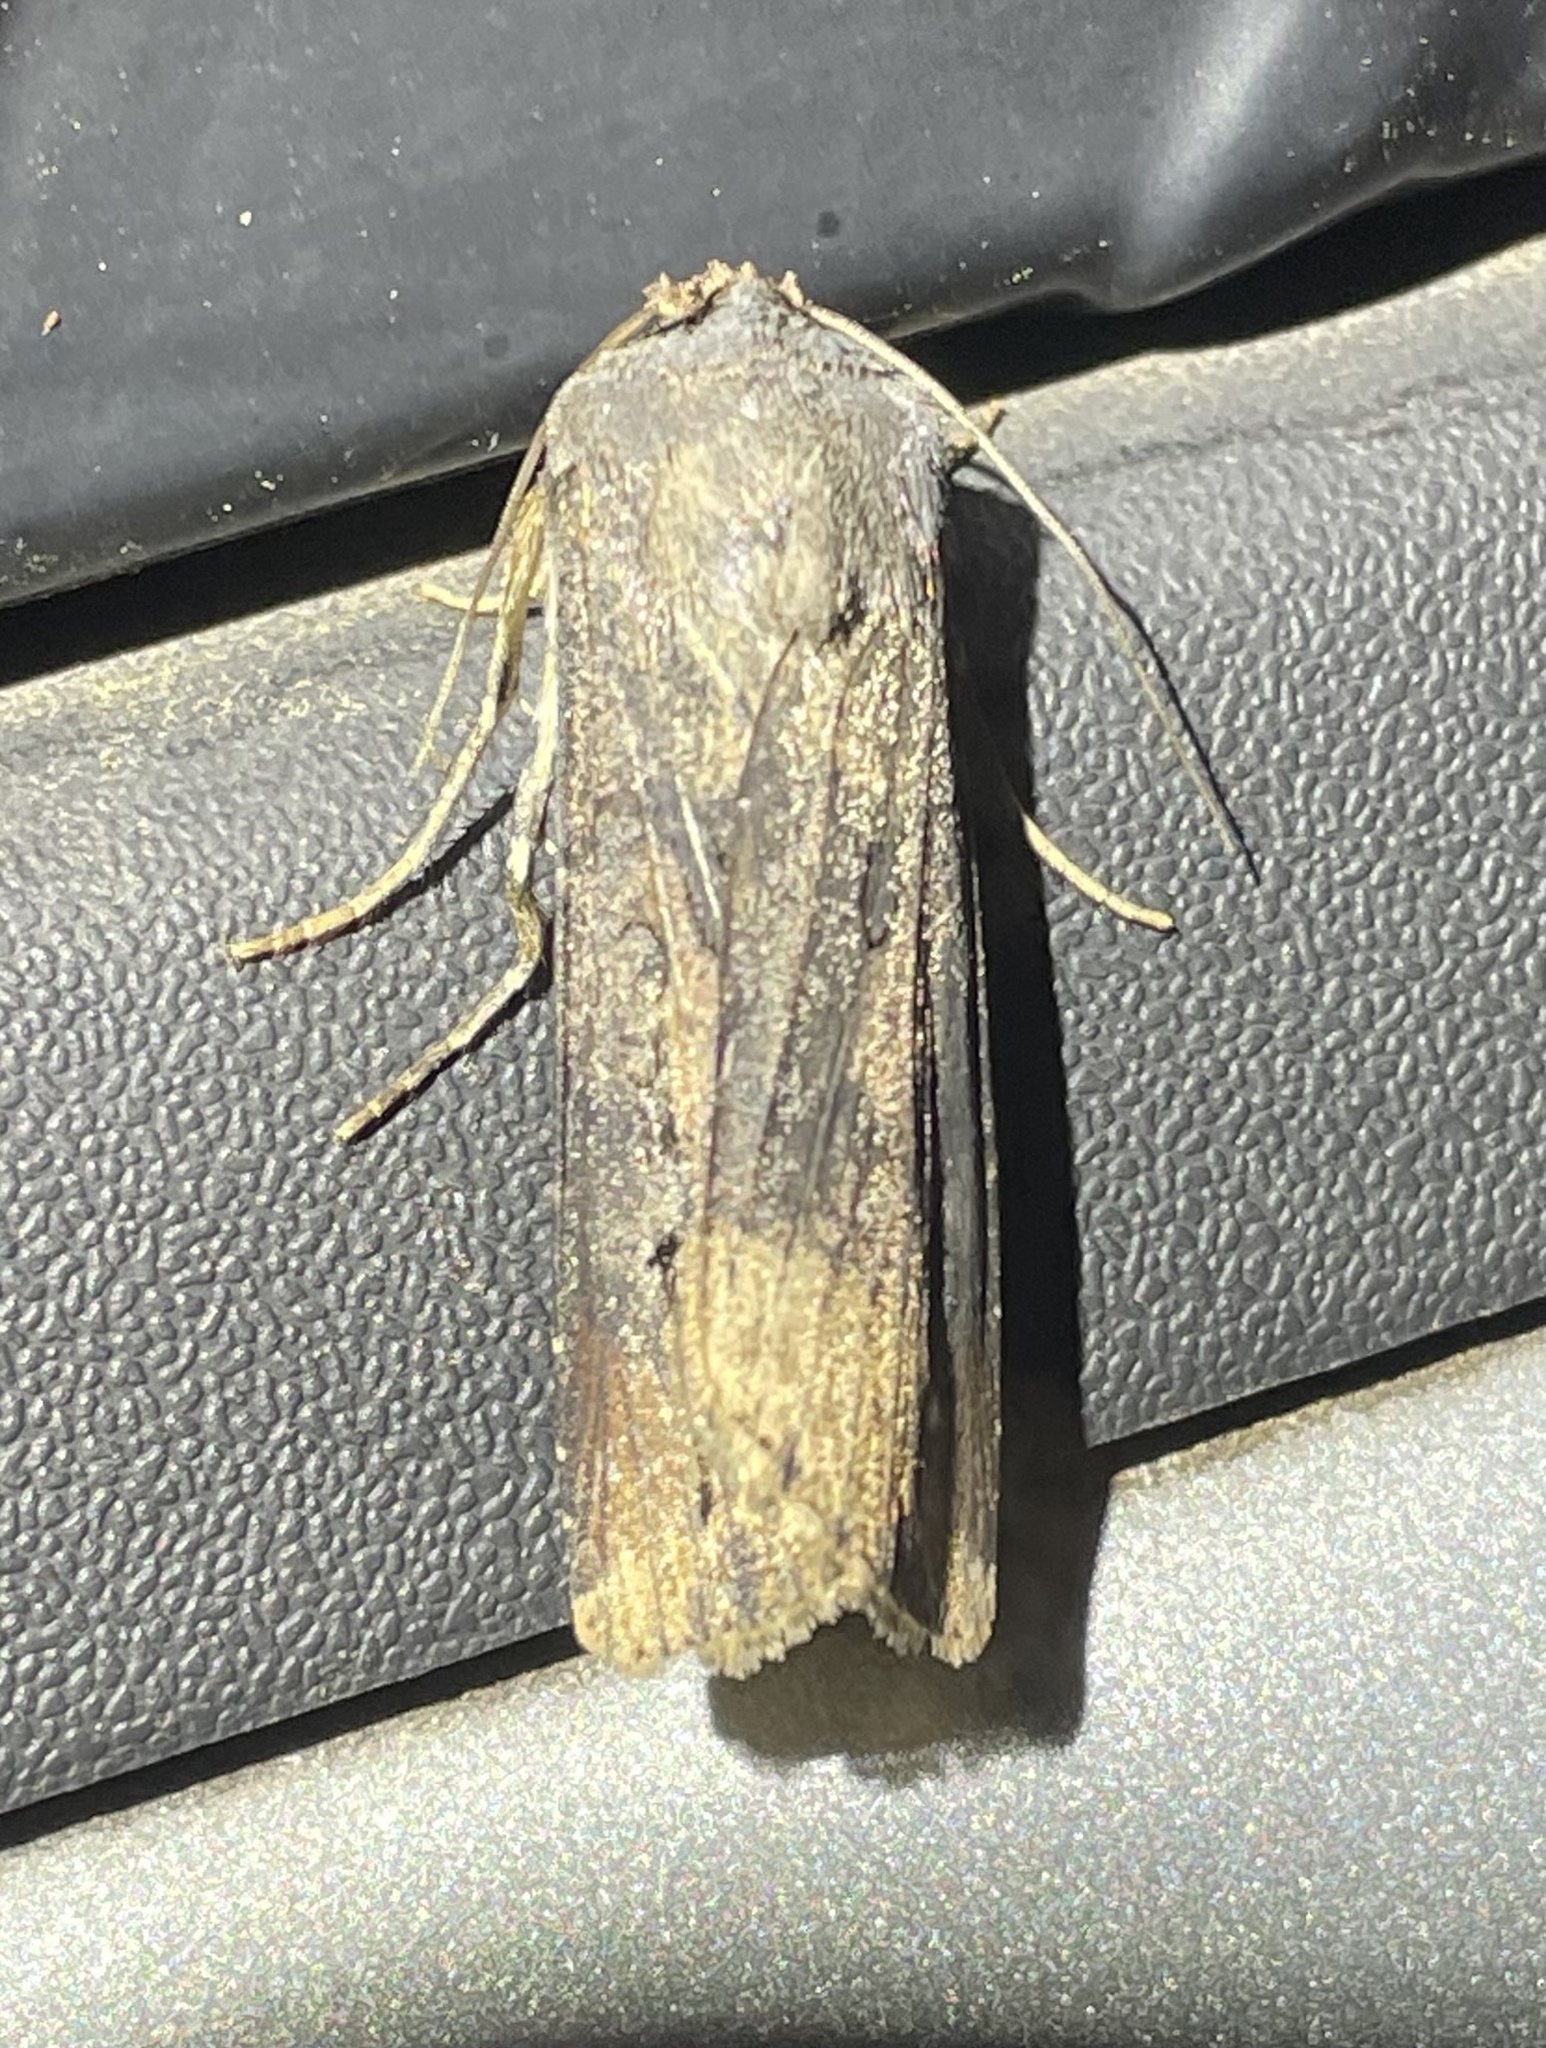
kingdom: Animalia
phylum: Arthropoda
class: Insecta
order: Lepidoptera
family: Noctuidae
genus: Agrotis
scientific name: Agrotis ipsilon
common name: Dark sword-grass
